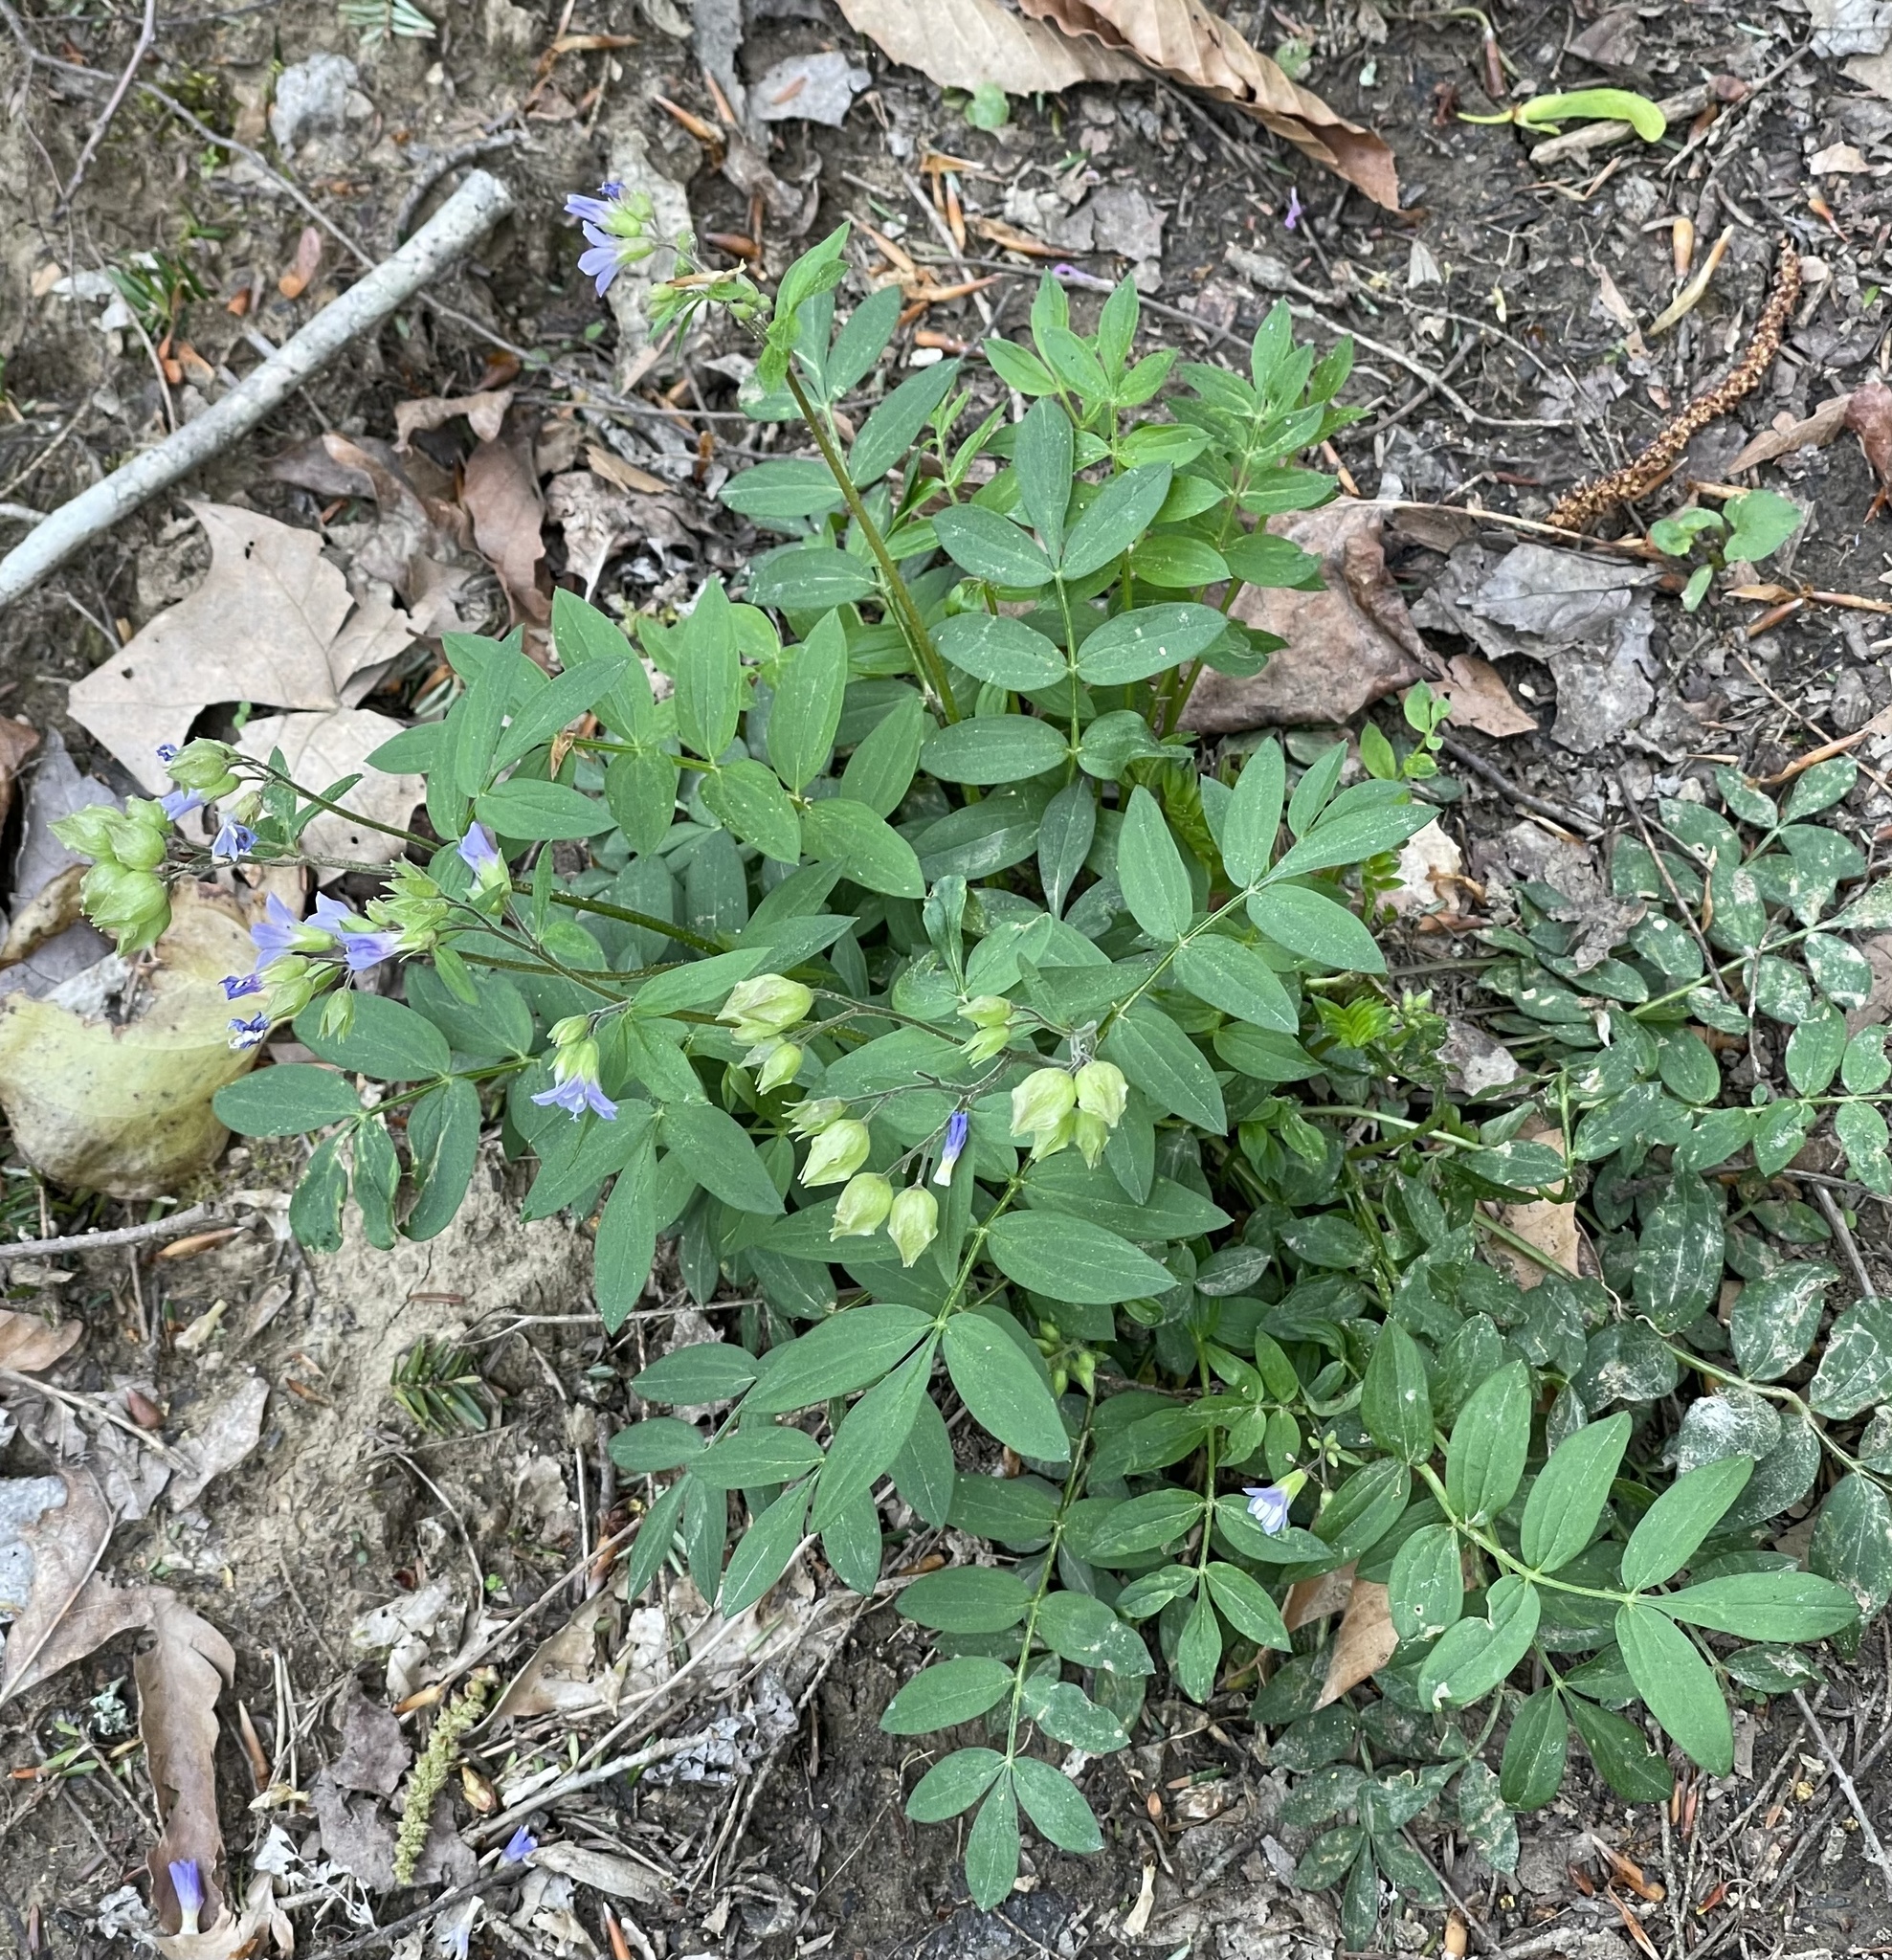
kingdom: Plantae
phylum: Tracheophyta
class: Magnoliopsida
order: Ericales
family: Polemoniaceae
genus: Polemonium
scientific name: Polemonium reptans
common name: Creeping jacob's-ladder
